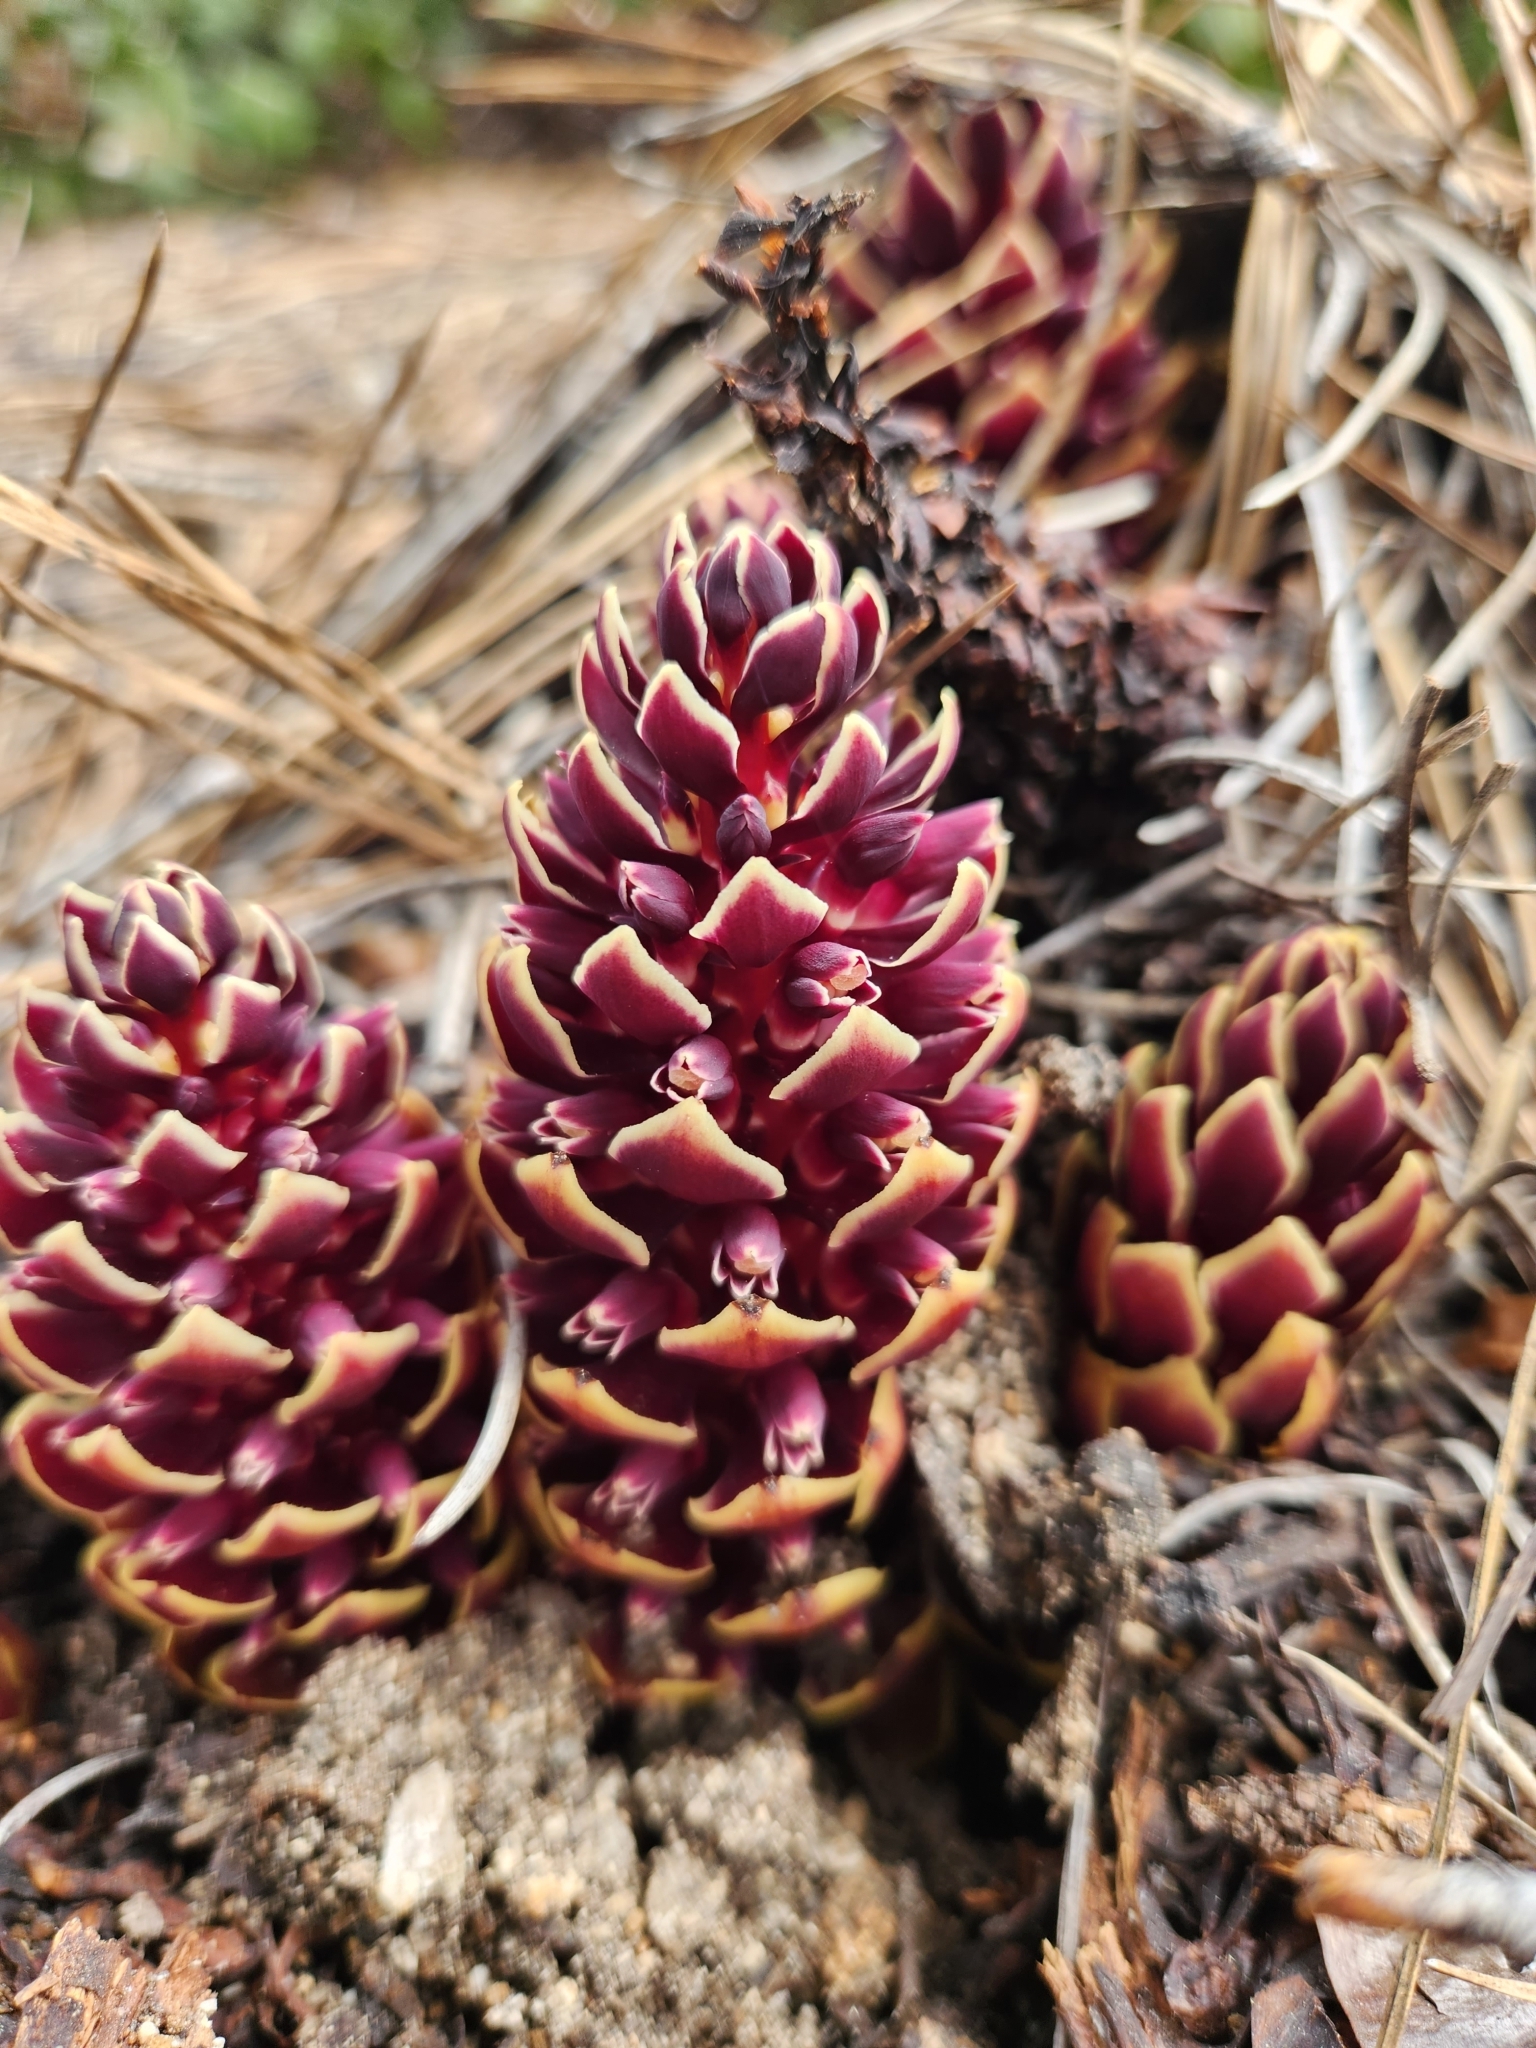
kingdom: Plantae
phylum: Tracheophyta
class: Magnoliopsida
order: Lamiales
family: Orobanchaceae
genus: Kopsiopsis
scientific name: Kopsiopsis strobilacea
